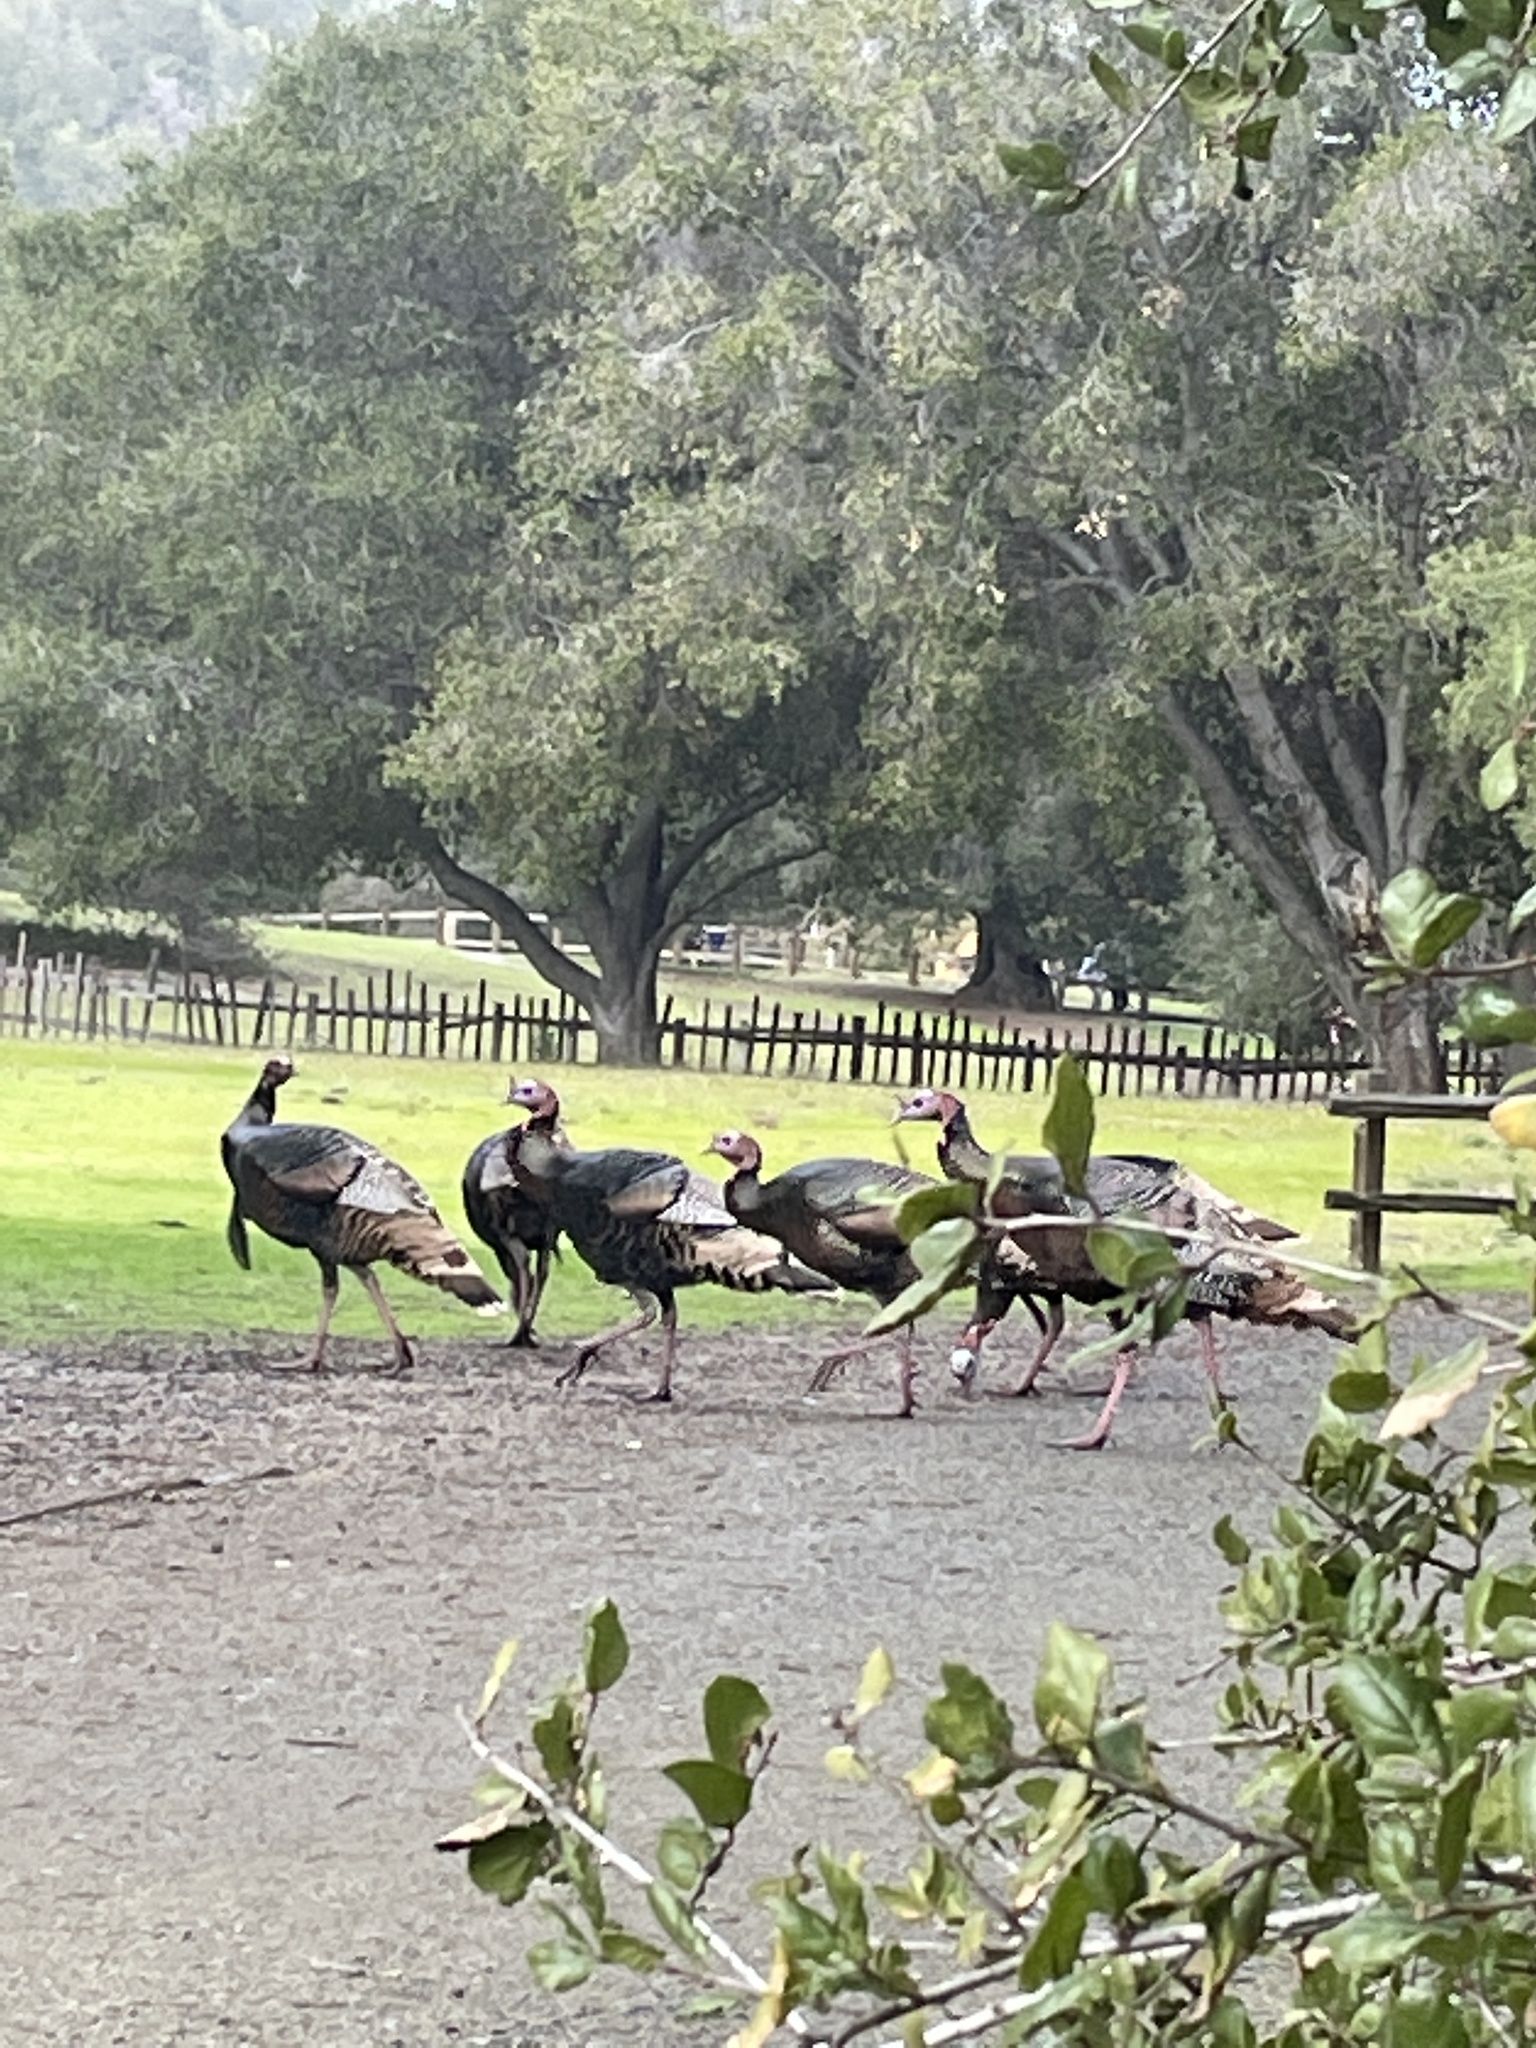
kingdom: Animalia
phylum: Chordata
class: Aves
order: Galliformes
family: Phasianidae
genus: Meleagris
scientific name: Meleagris gallopavo
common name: Wild turkey
